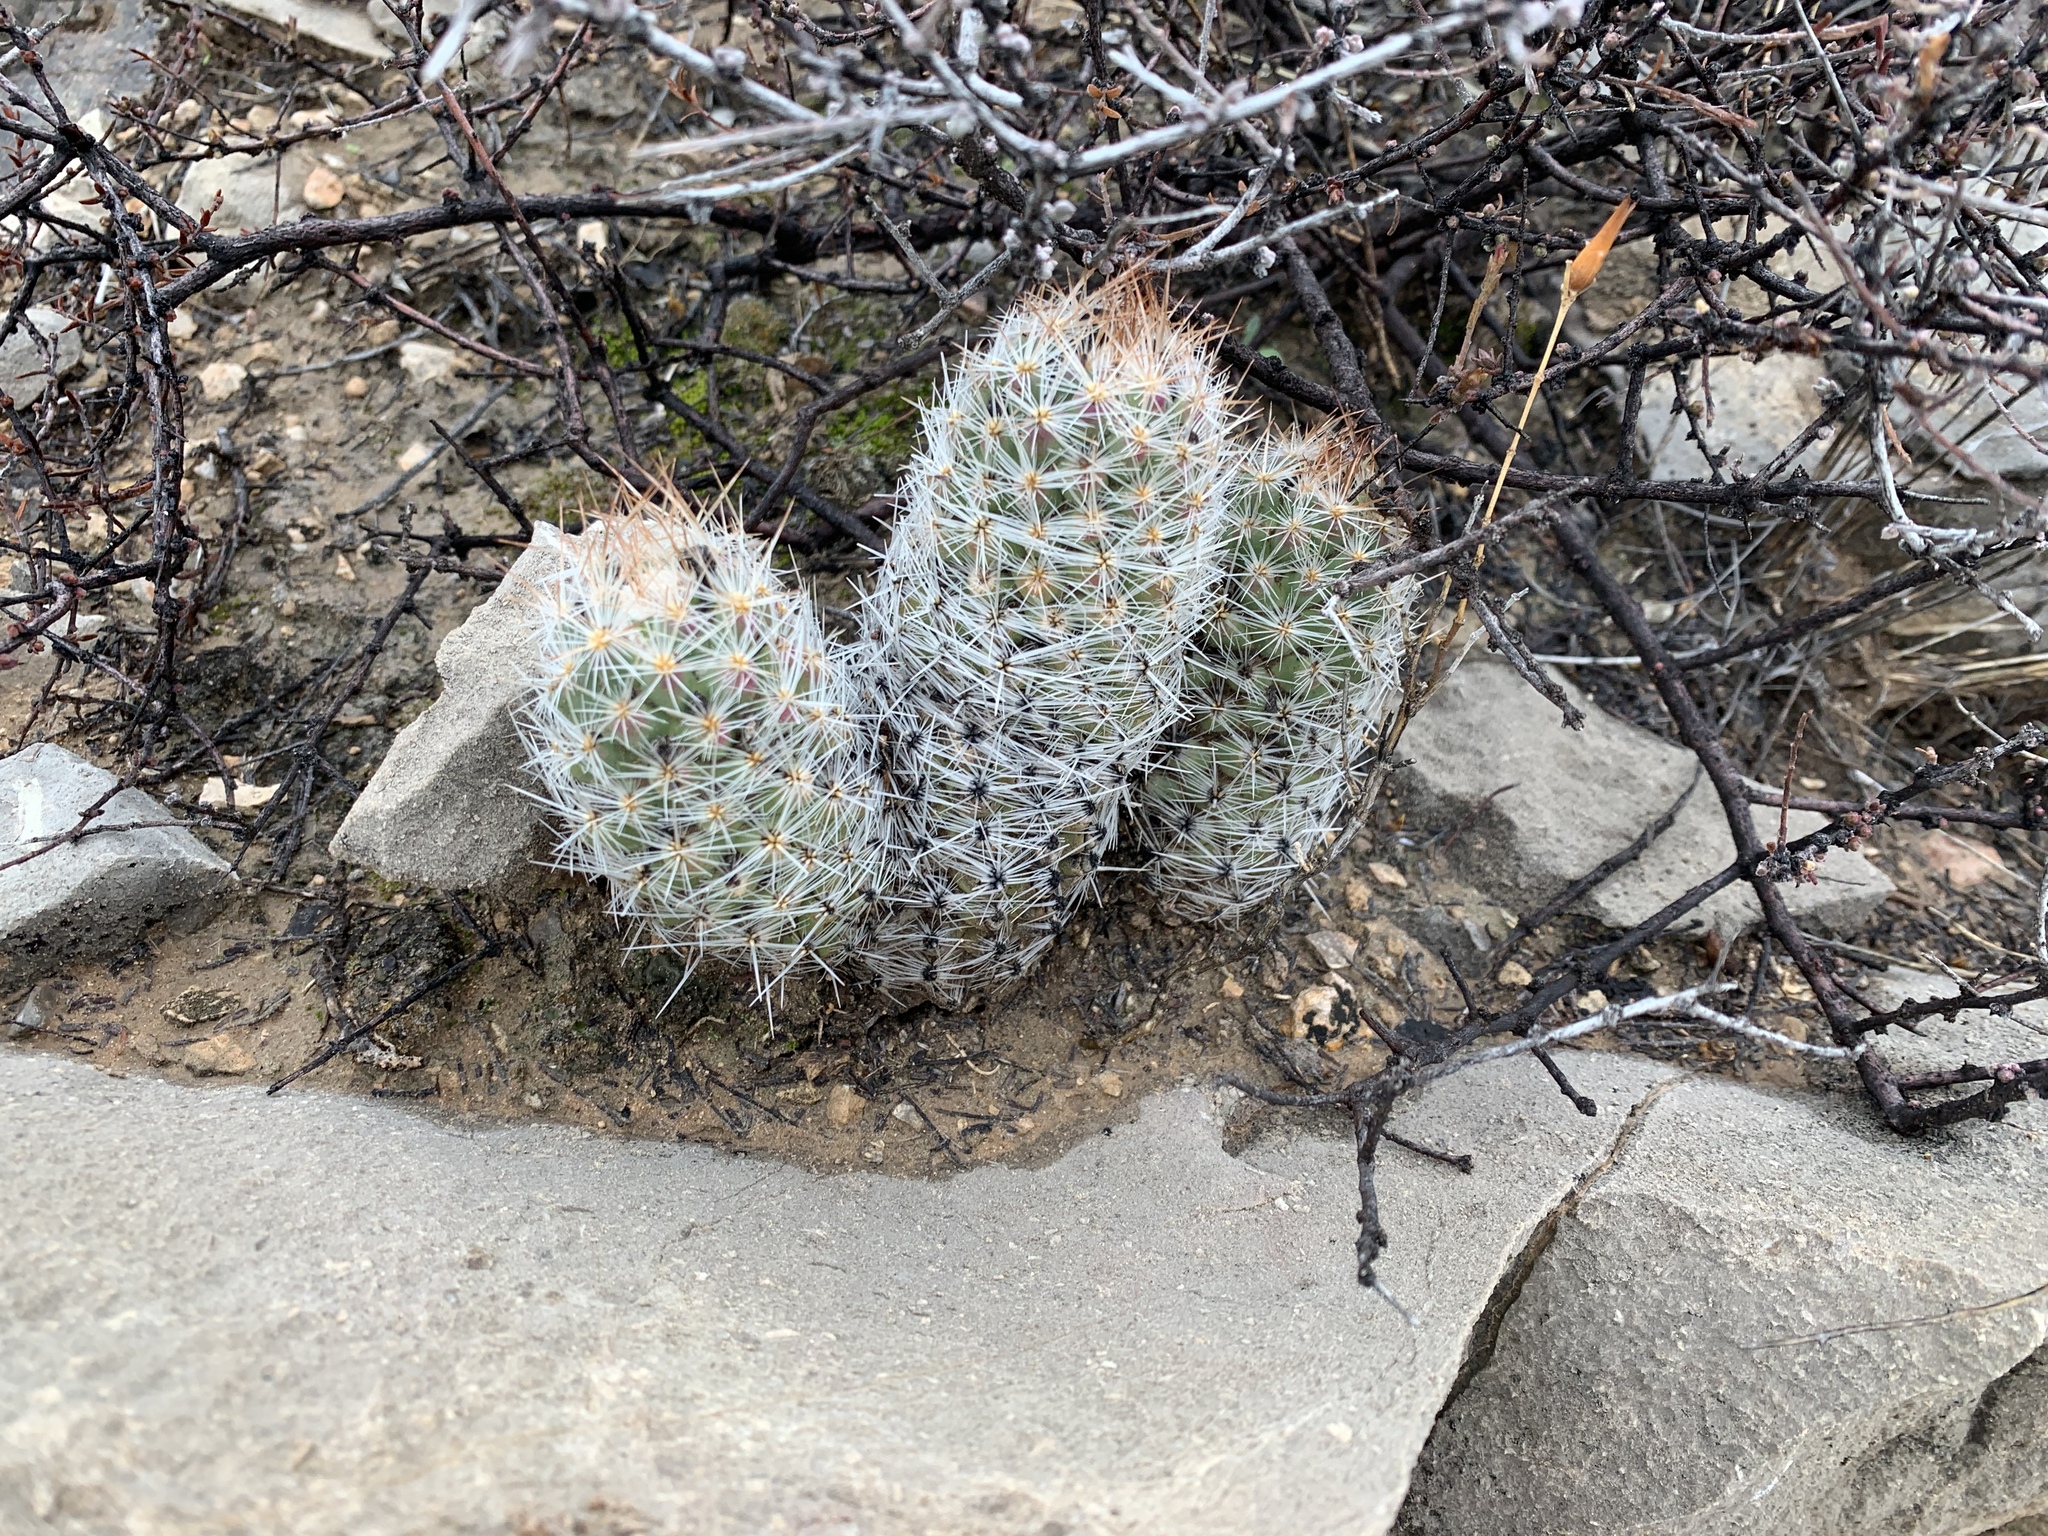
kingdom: Plantae
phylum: Tracheophyta
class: Magnoliopsida
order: Caryophyllales
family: Cactaceae
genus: Pelecyphora
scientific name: Pelecyphora tuberculosa
